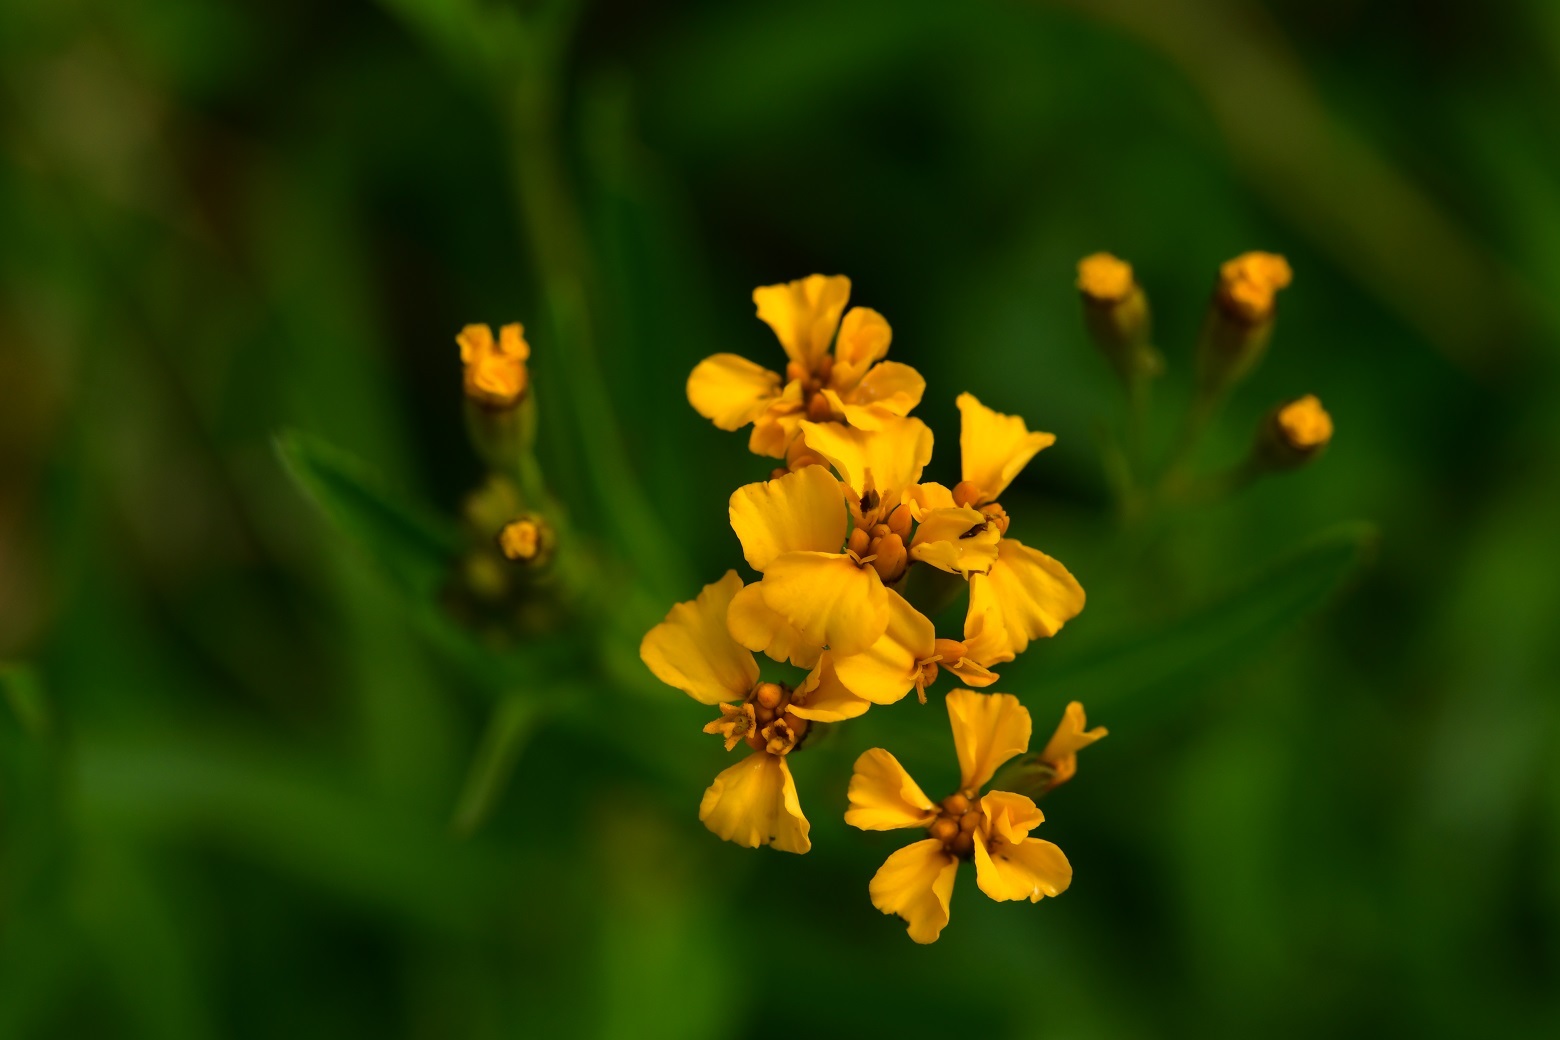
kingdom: Plantae
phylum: Tracheophyta
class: Magnoliopsida
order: Asterales
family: Asteraceae
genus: Tagetes
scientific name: Tagetes lucida
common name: Sweetscented marigold
